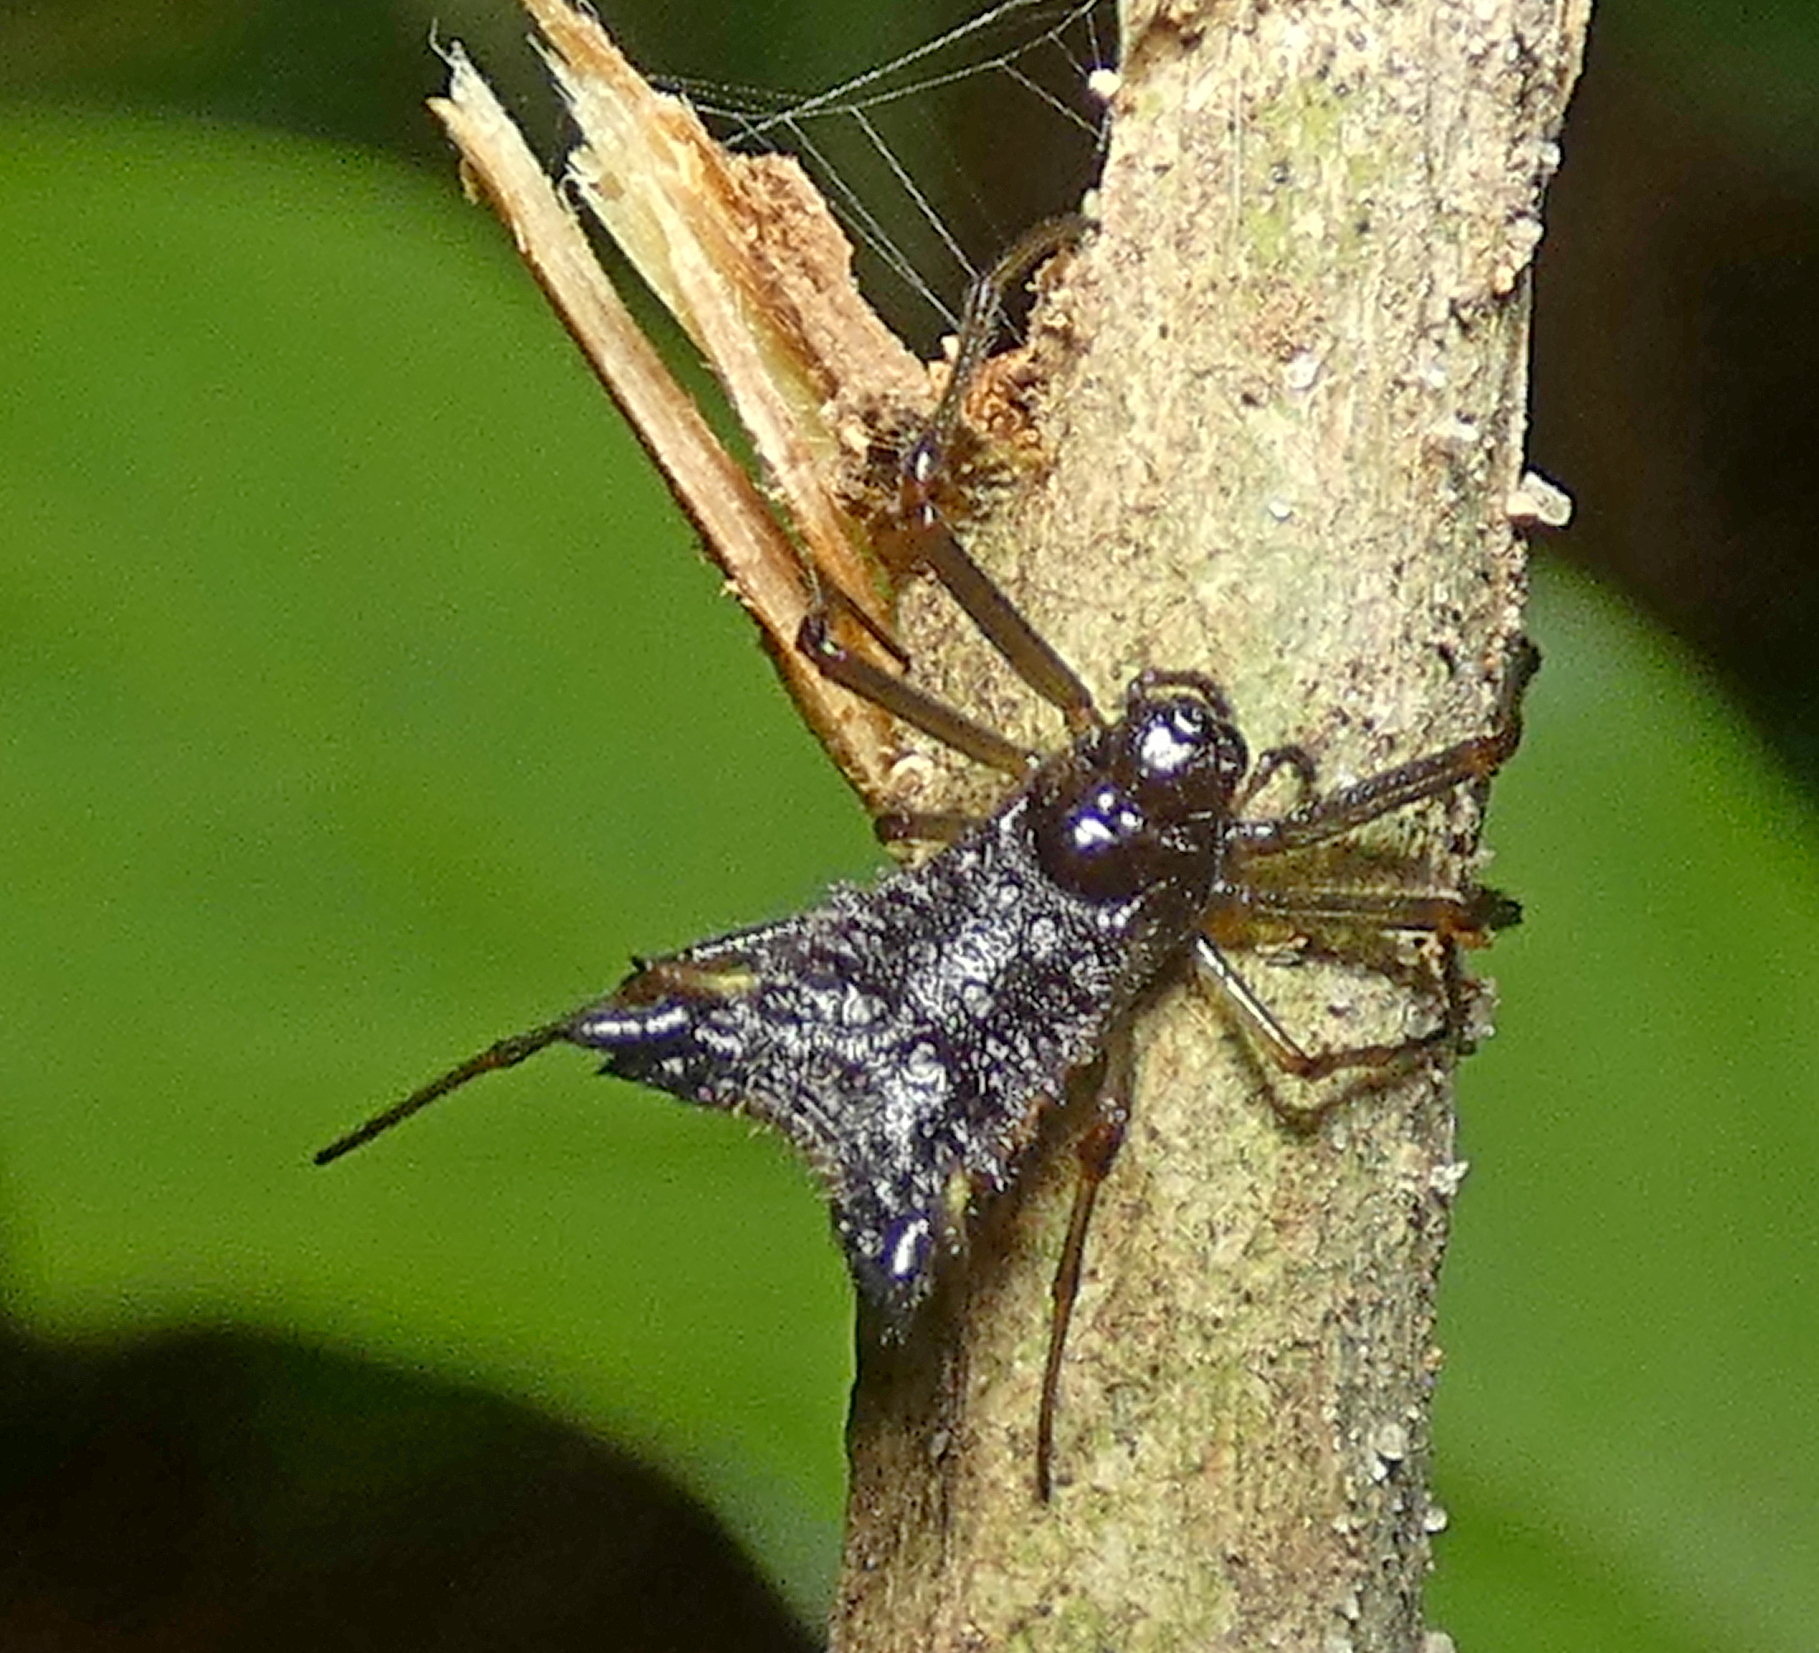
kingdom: Animalia
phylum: Arthropoda
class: Arachnida
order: Araneae
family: Araneidae
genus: Micrathena
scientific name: Micrathena triangularis
